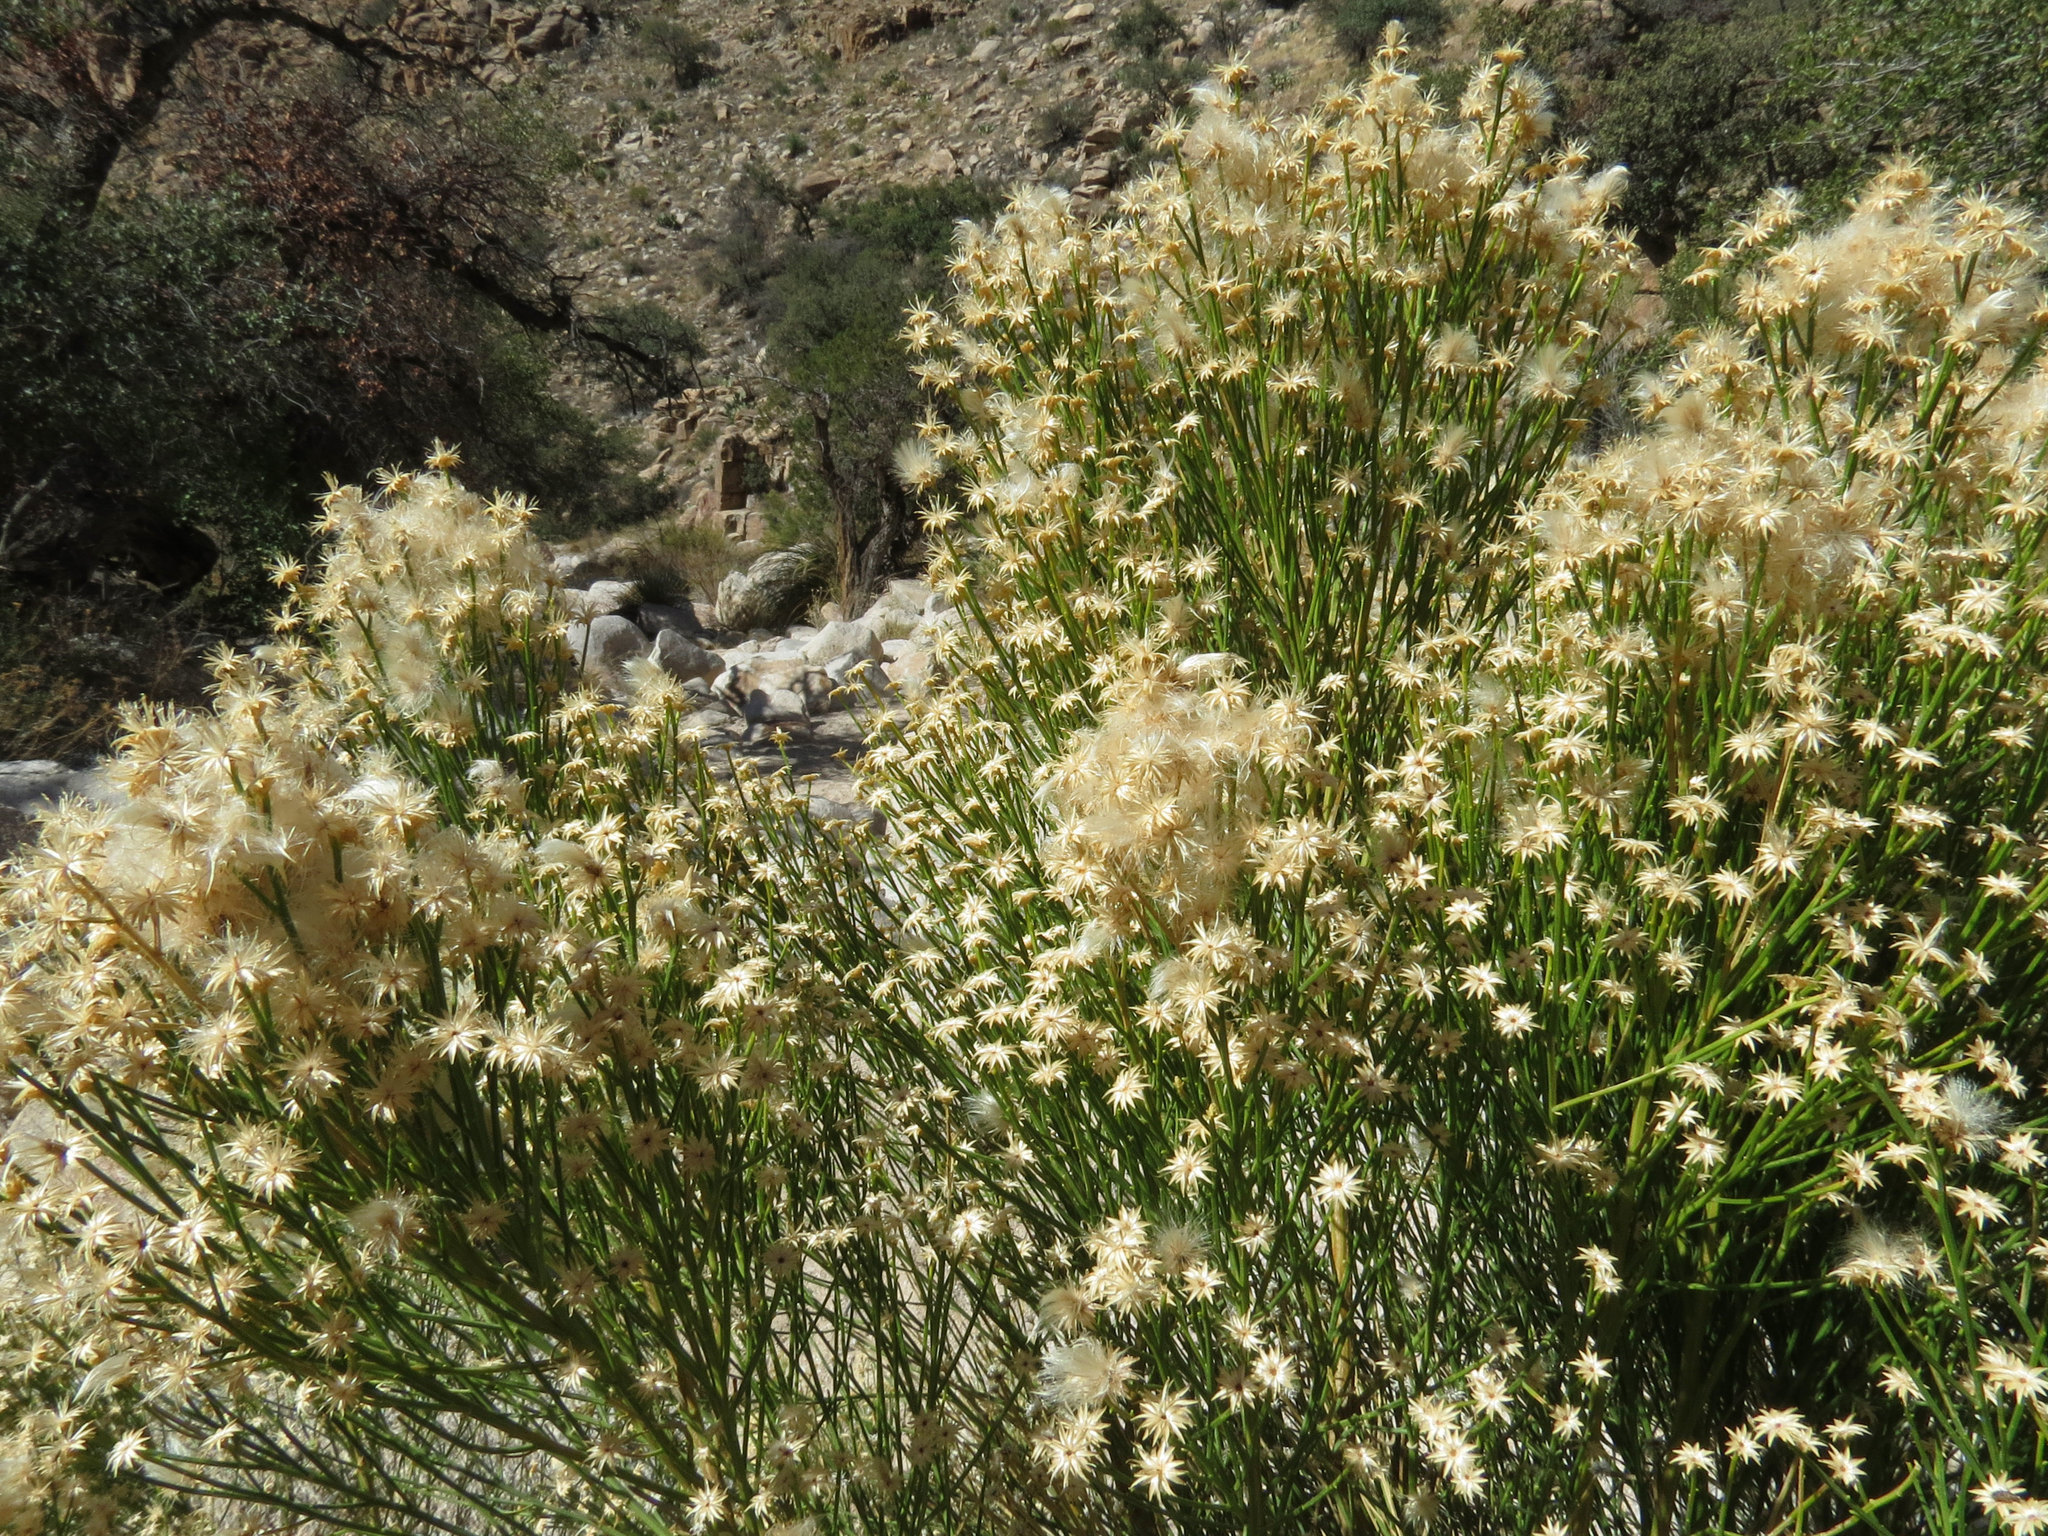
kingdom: Plantae
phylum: Tracheophyta
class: Magnoliopsida
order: Asterales
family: Asteraceae
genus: Baccharis
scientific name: Baccharis sarothroides
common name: Desert-broom
